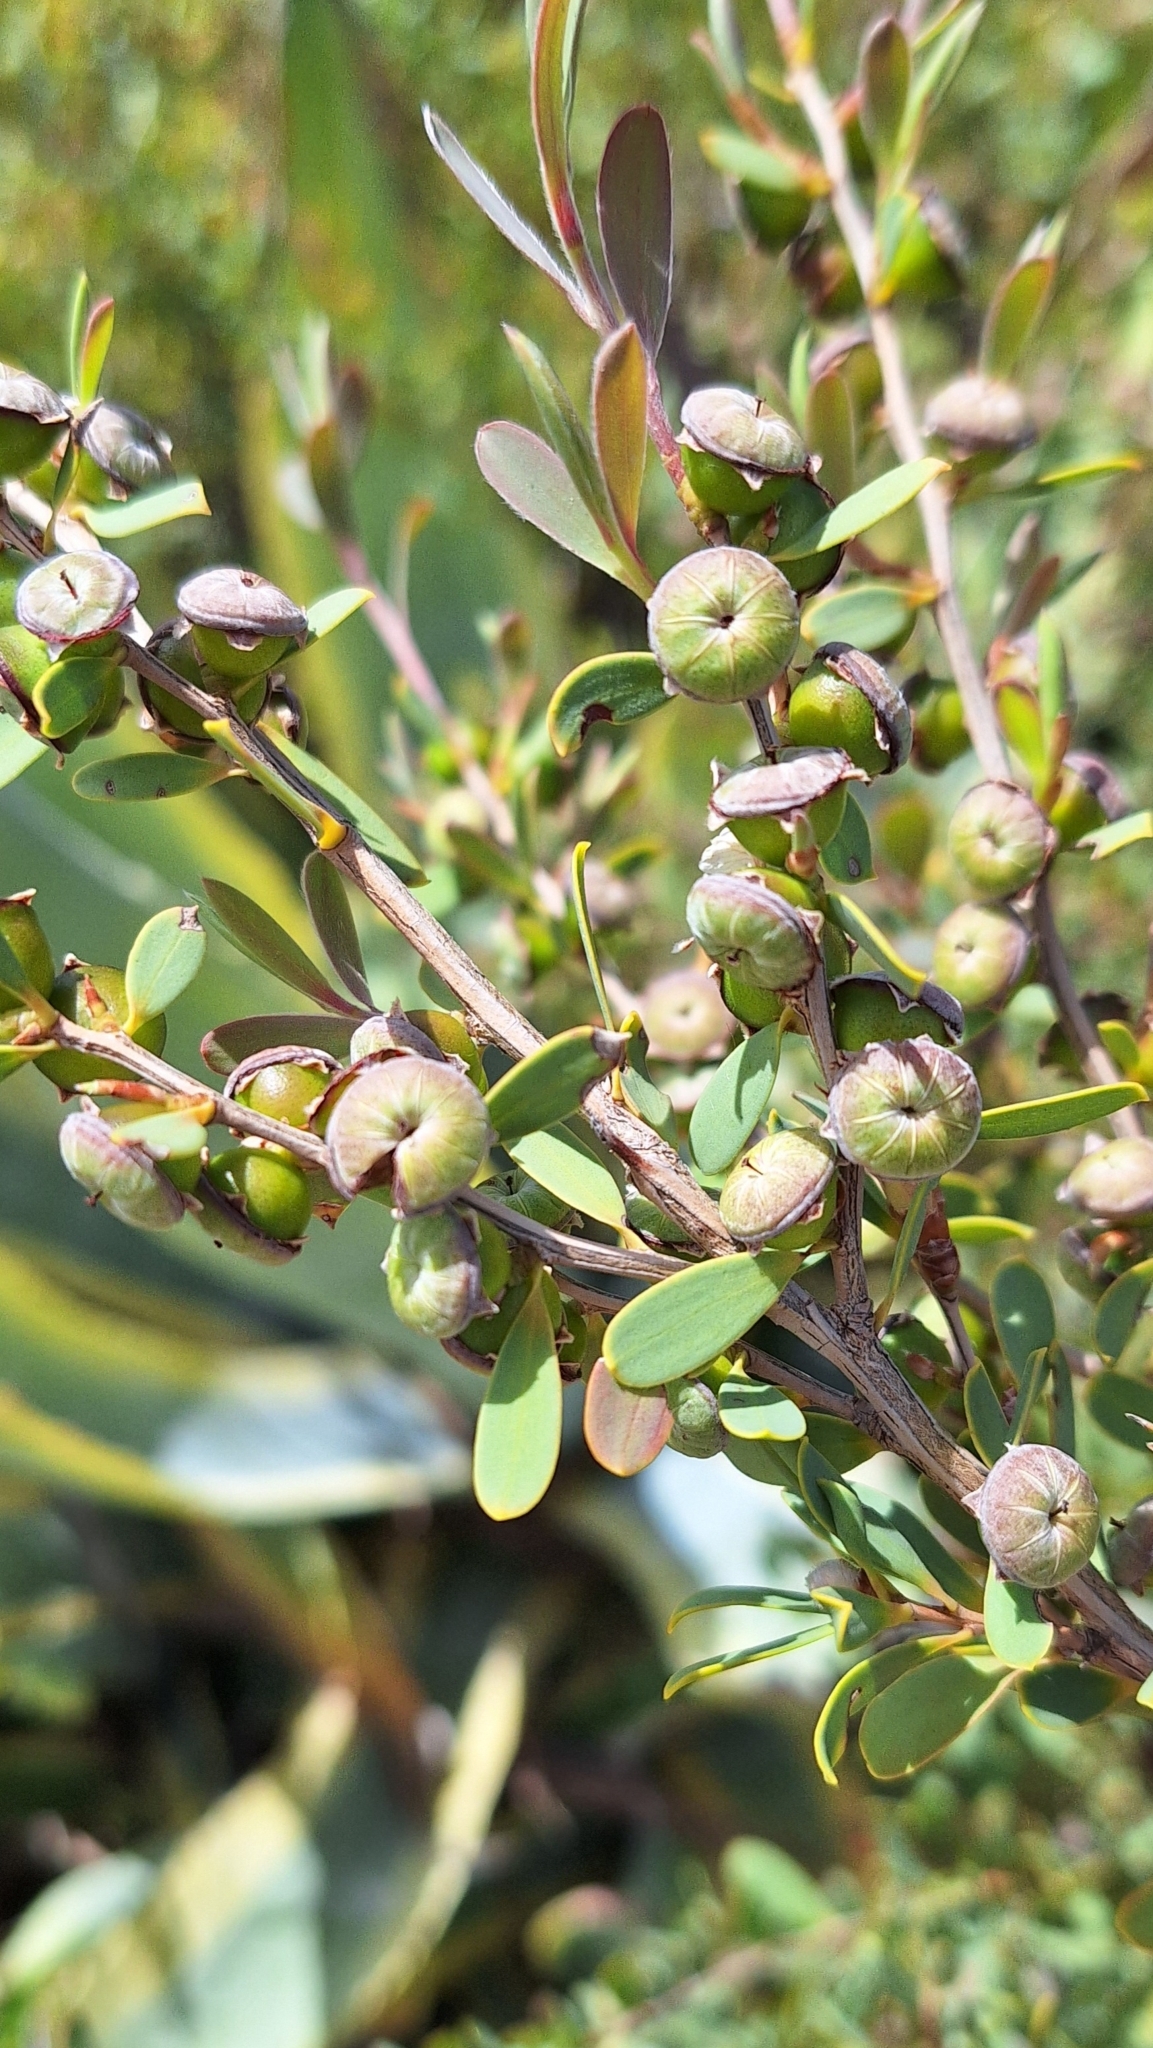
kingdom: Plantae
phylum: Tracheophyta
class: Magnoliopsida
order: Myrtales
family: Myrtaceae
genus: Leptospermum
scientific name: Leptospermum laevigatum
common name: Australian teatree
